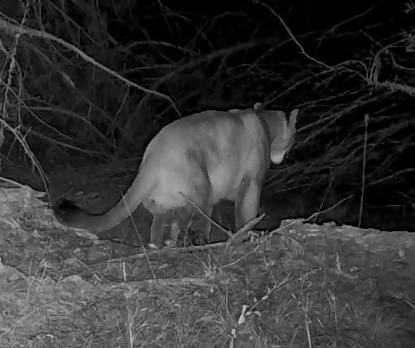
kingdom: Animalia
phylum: Chordata
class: Mammalia
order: Carnivora
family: Felidae
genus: Puma
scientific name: Puma concolor
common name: Puma
